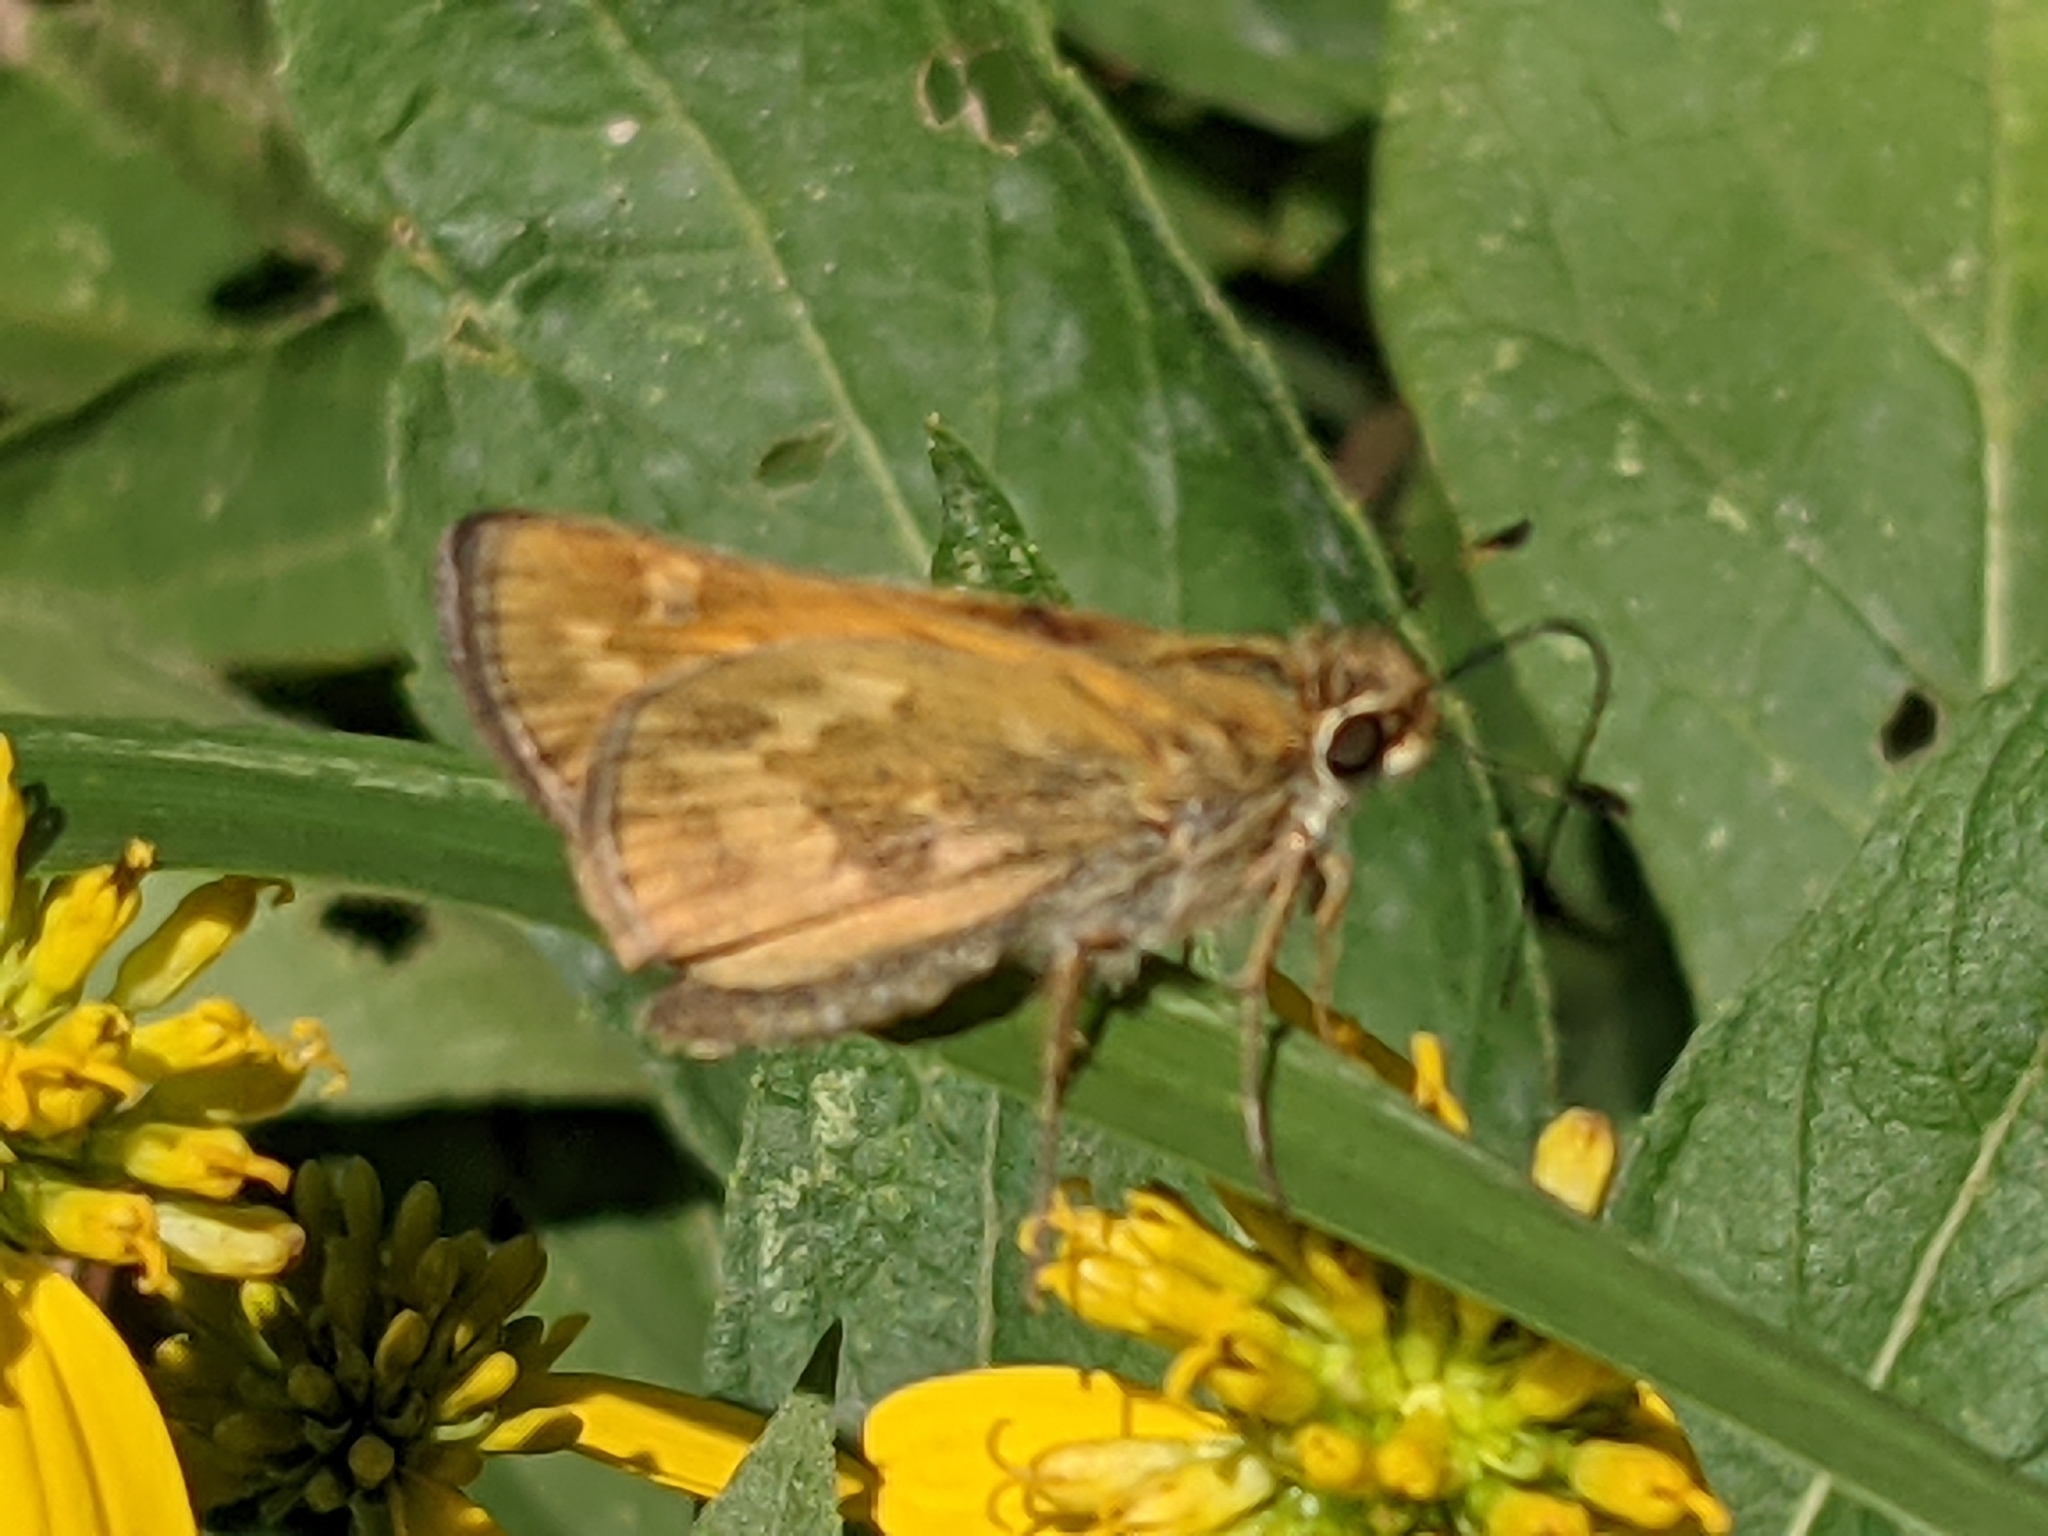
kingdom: Animalia
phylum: Arthropoda
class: Insecta
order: Lepidoptera
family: Hesperiidae
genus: Atalopedes
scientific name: Atalopedes
